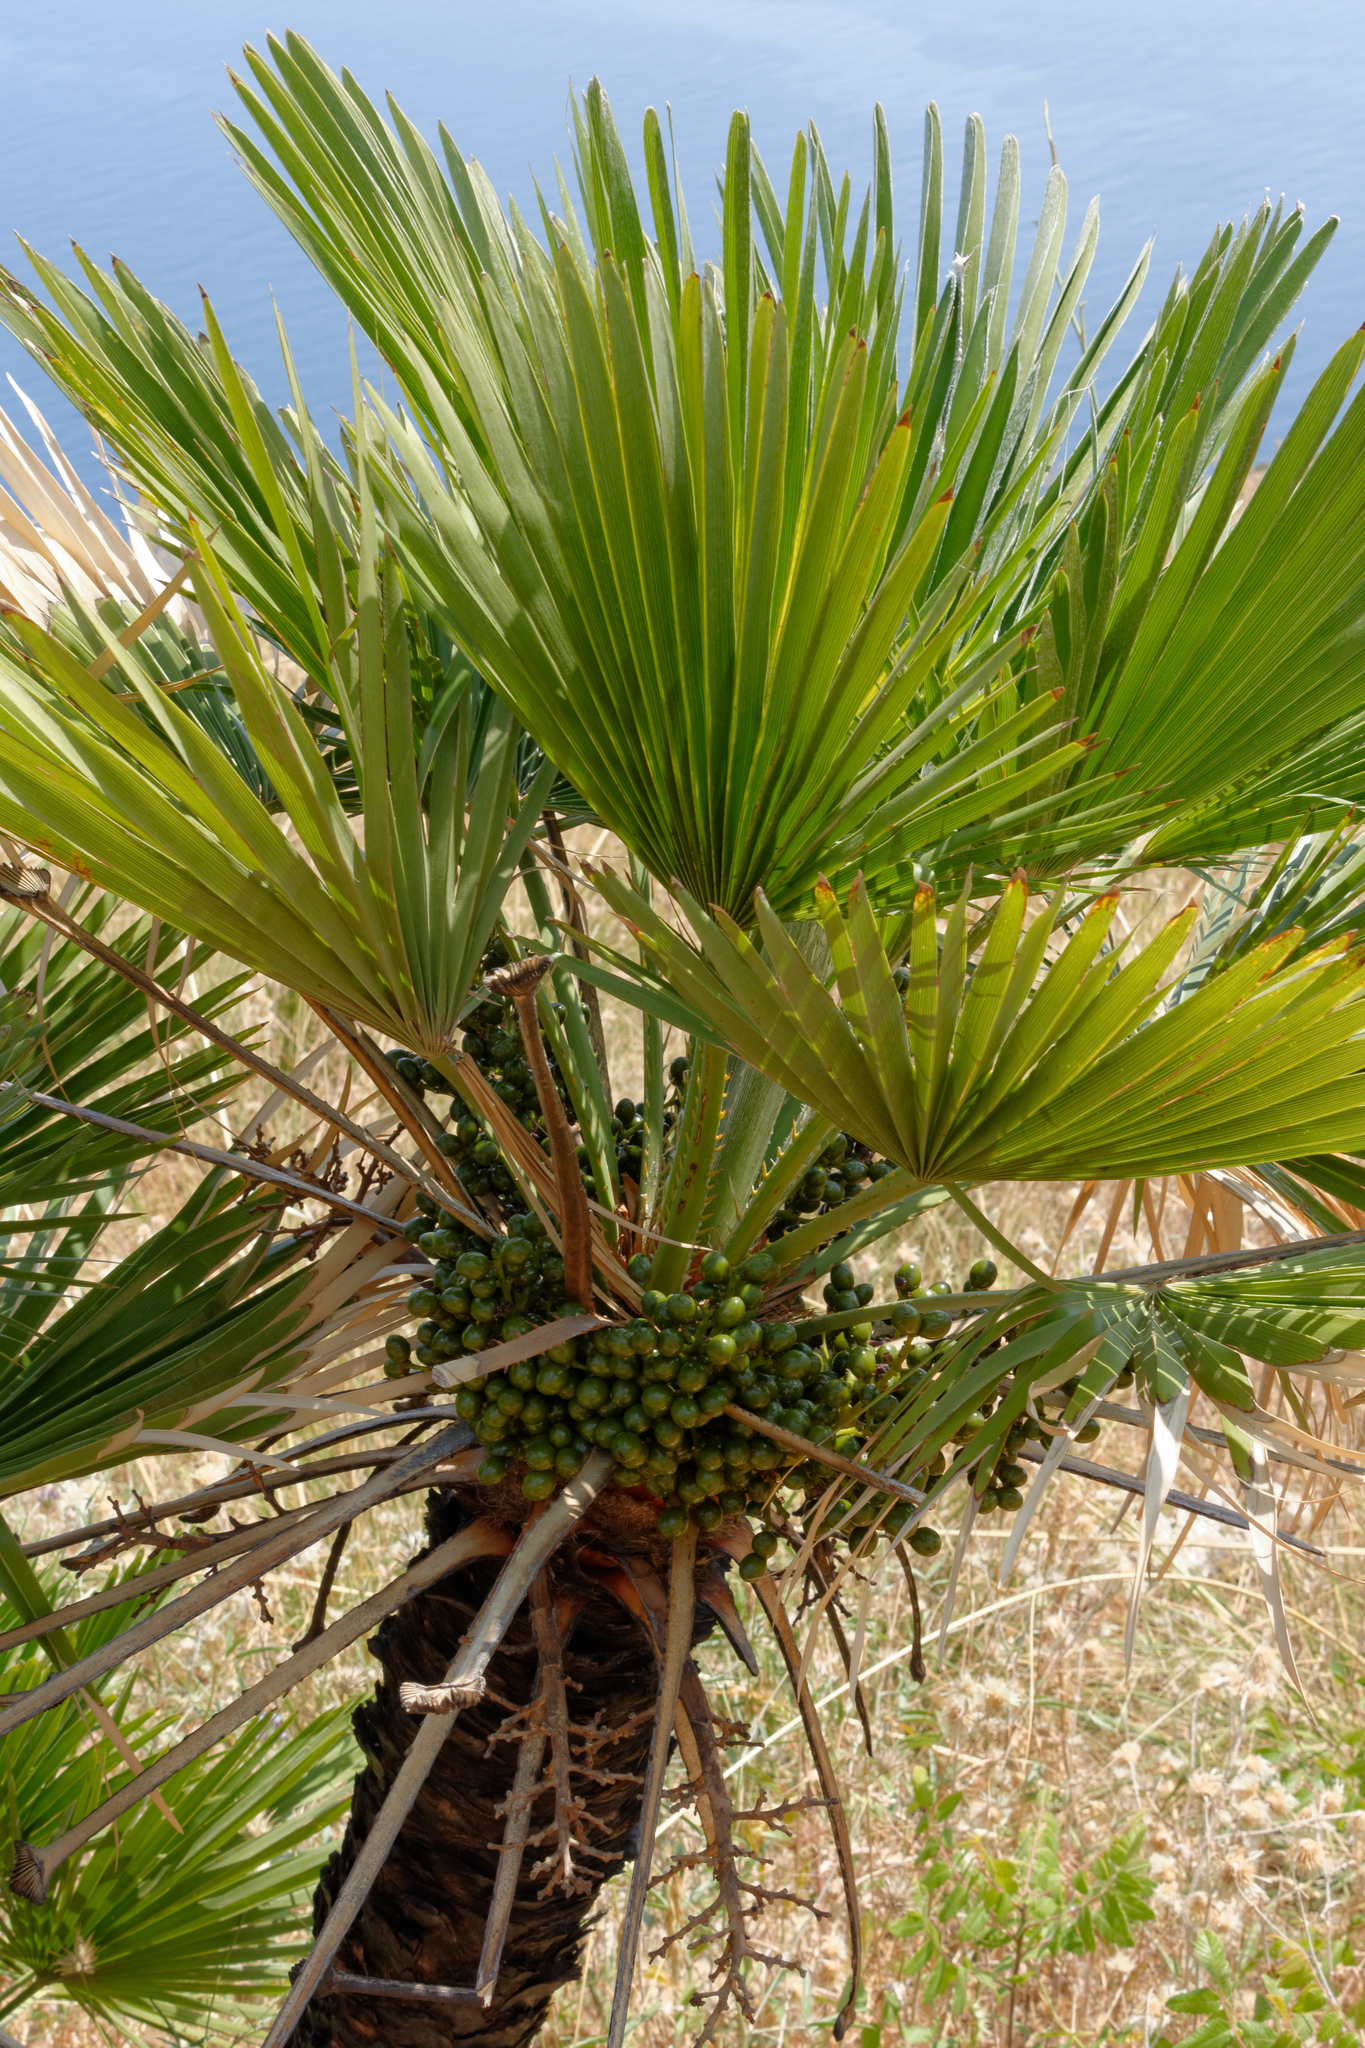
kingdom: Plantae
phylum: Tracheophyta
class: Liliopsida
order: Arecales
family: Arecaceae
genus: Chamaerops
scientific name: Chamaerops humilis
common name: Dwarf fan palm
